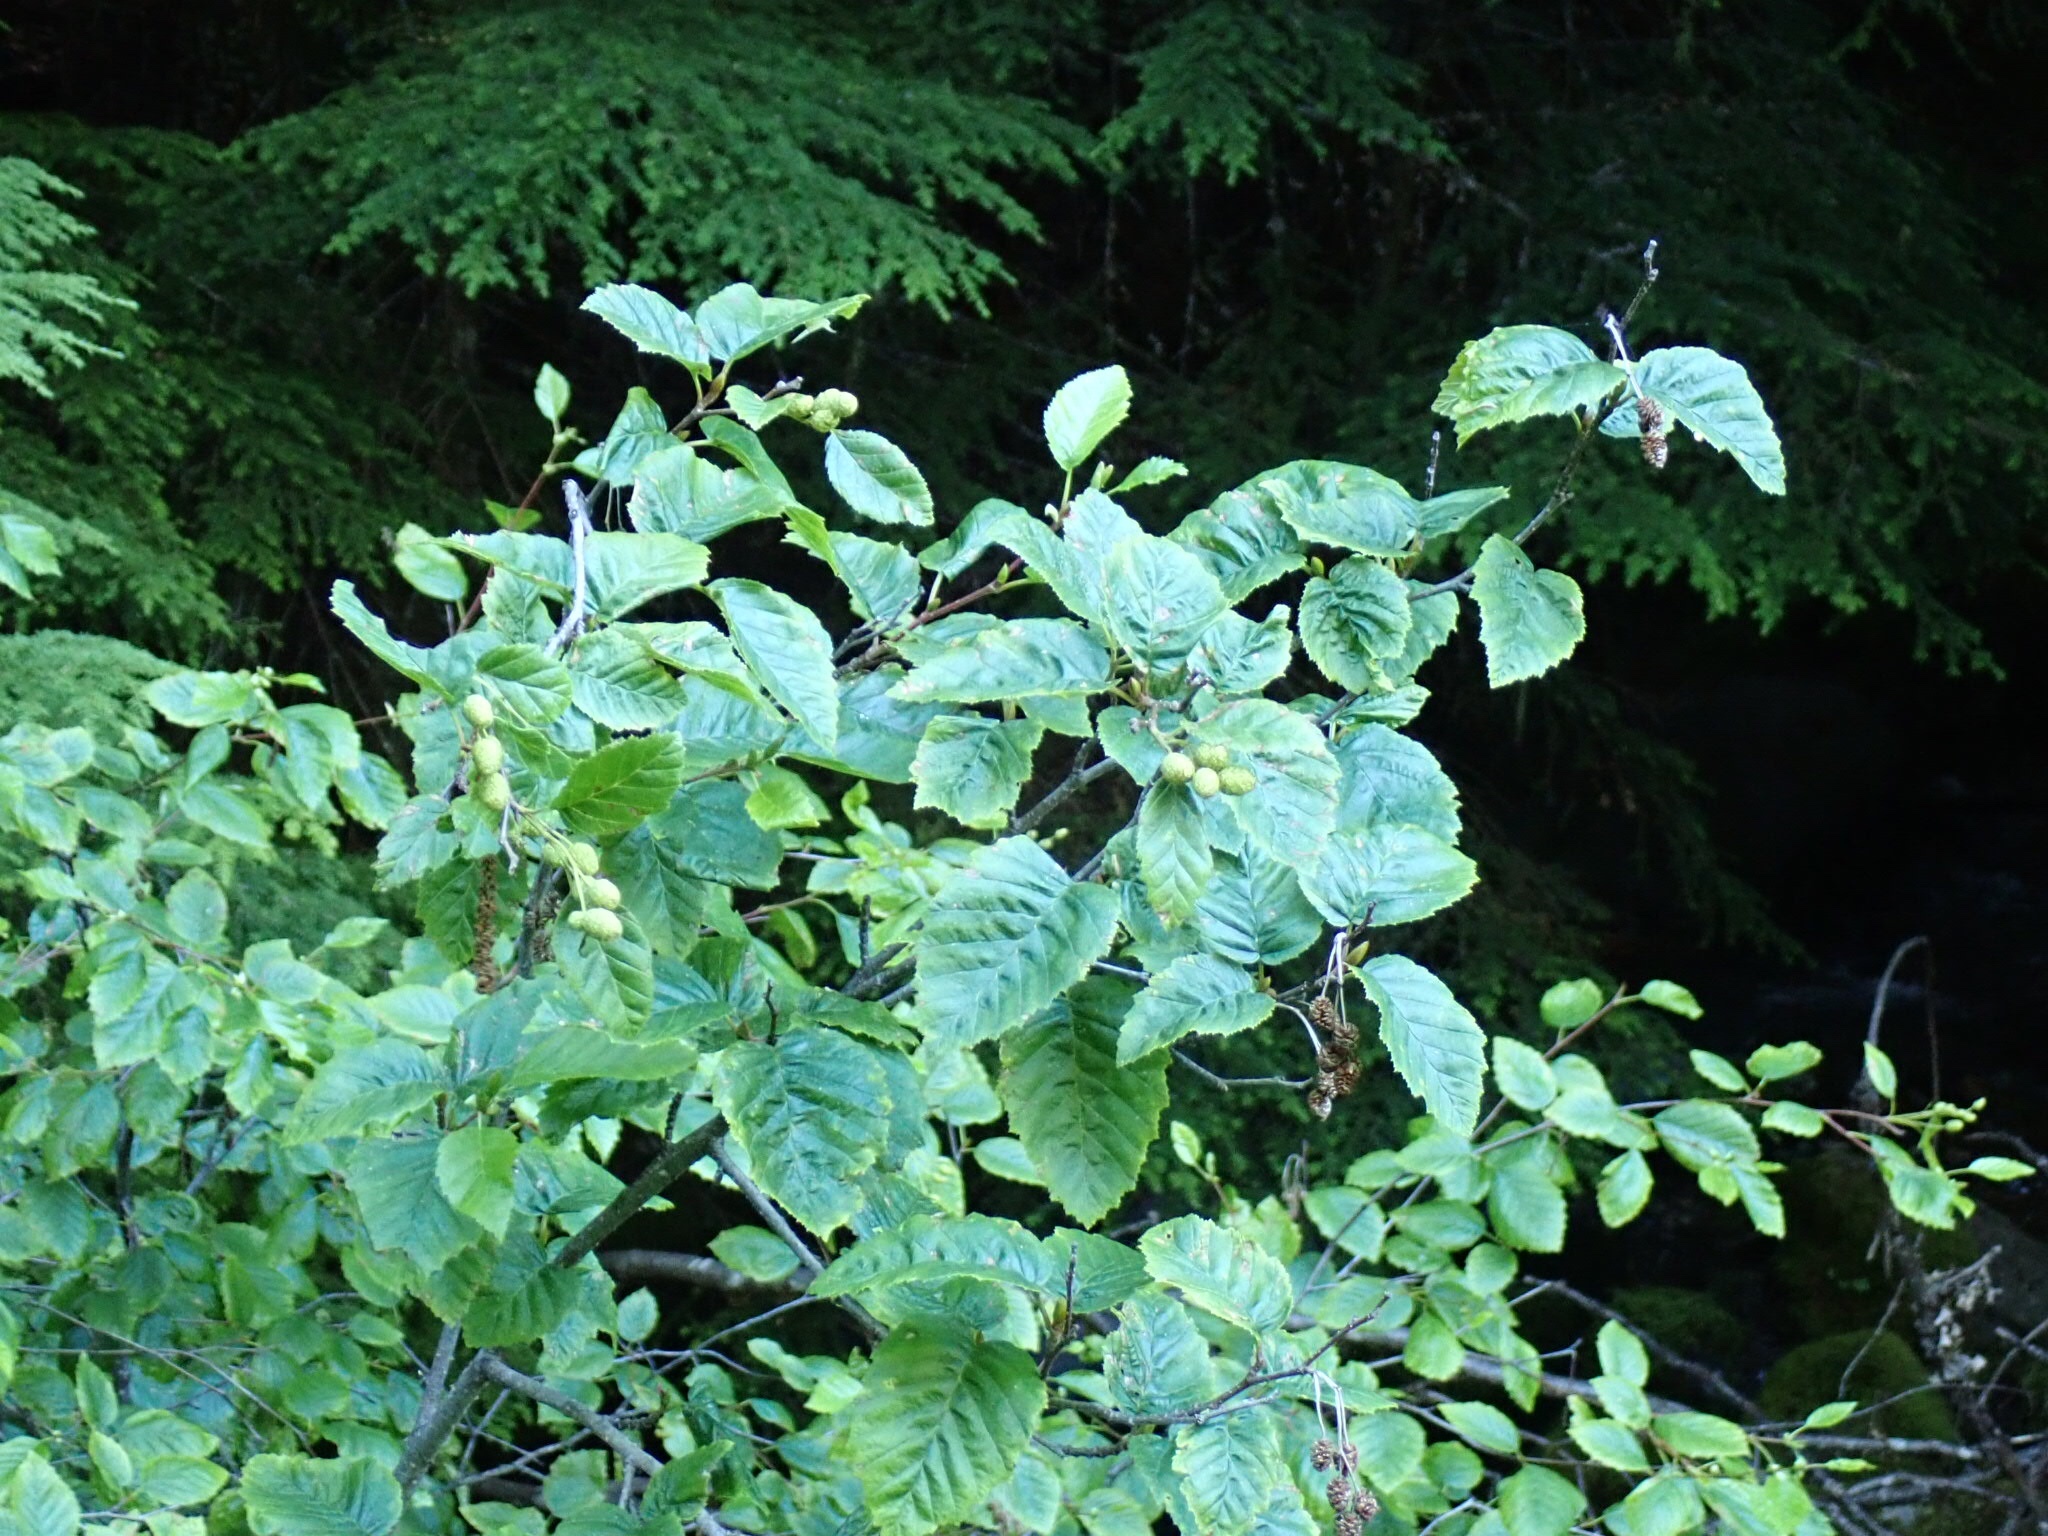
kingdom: Plantae
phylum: Tracheophyta
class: Magnoliopsida
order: Fagales
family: Betulaceae
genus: Alnus
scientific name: Alnus alnobetula
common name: Green alder
